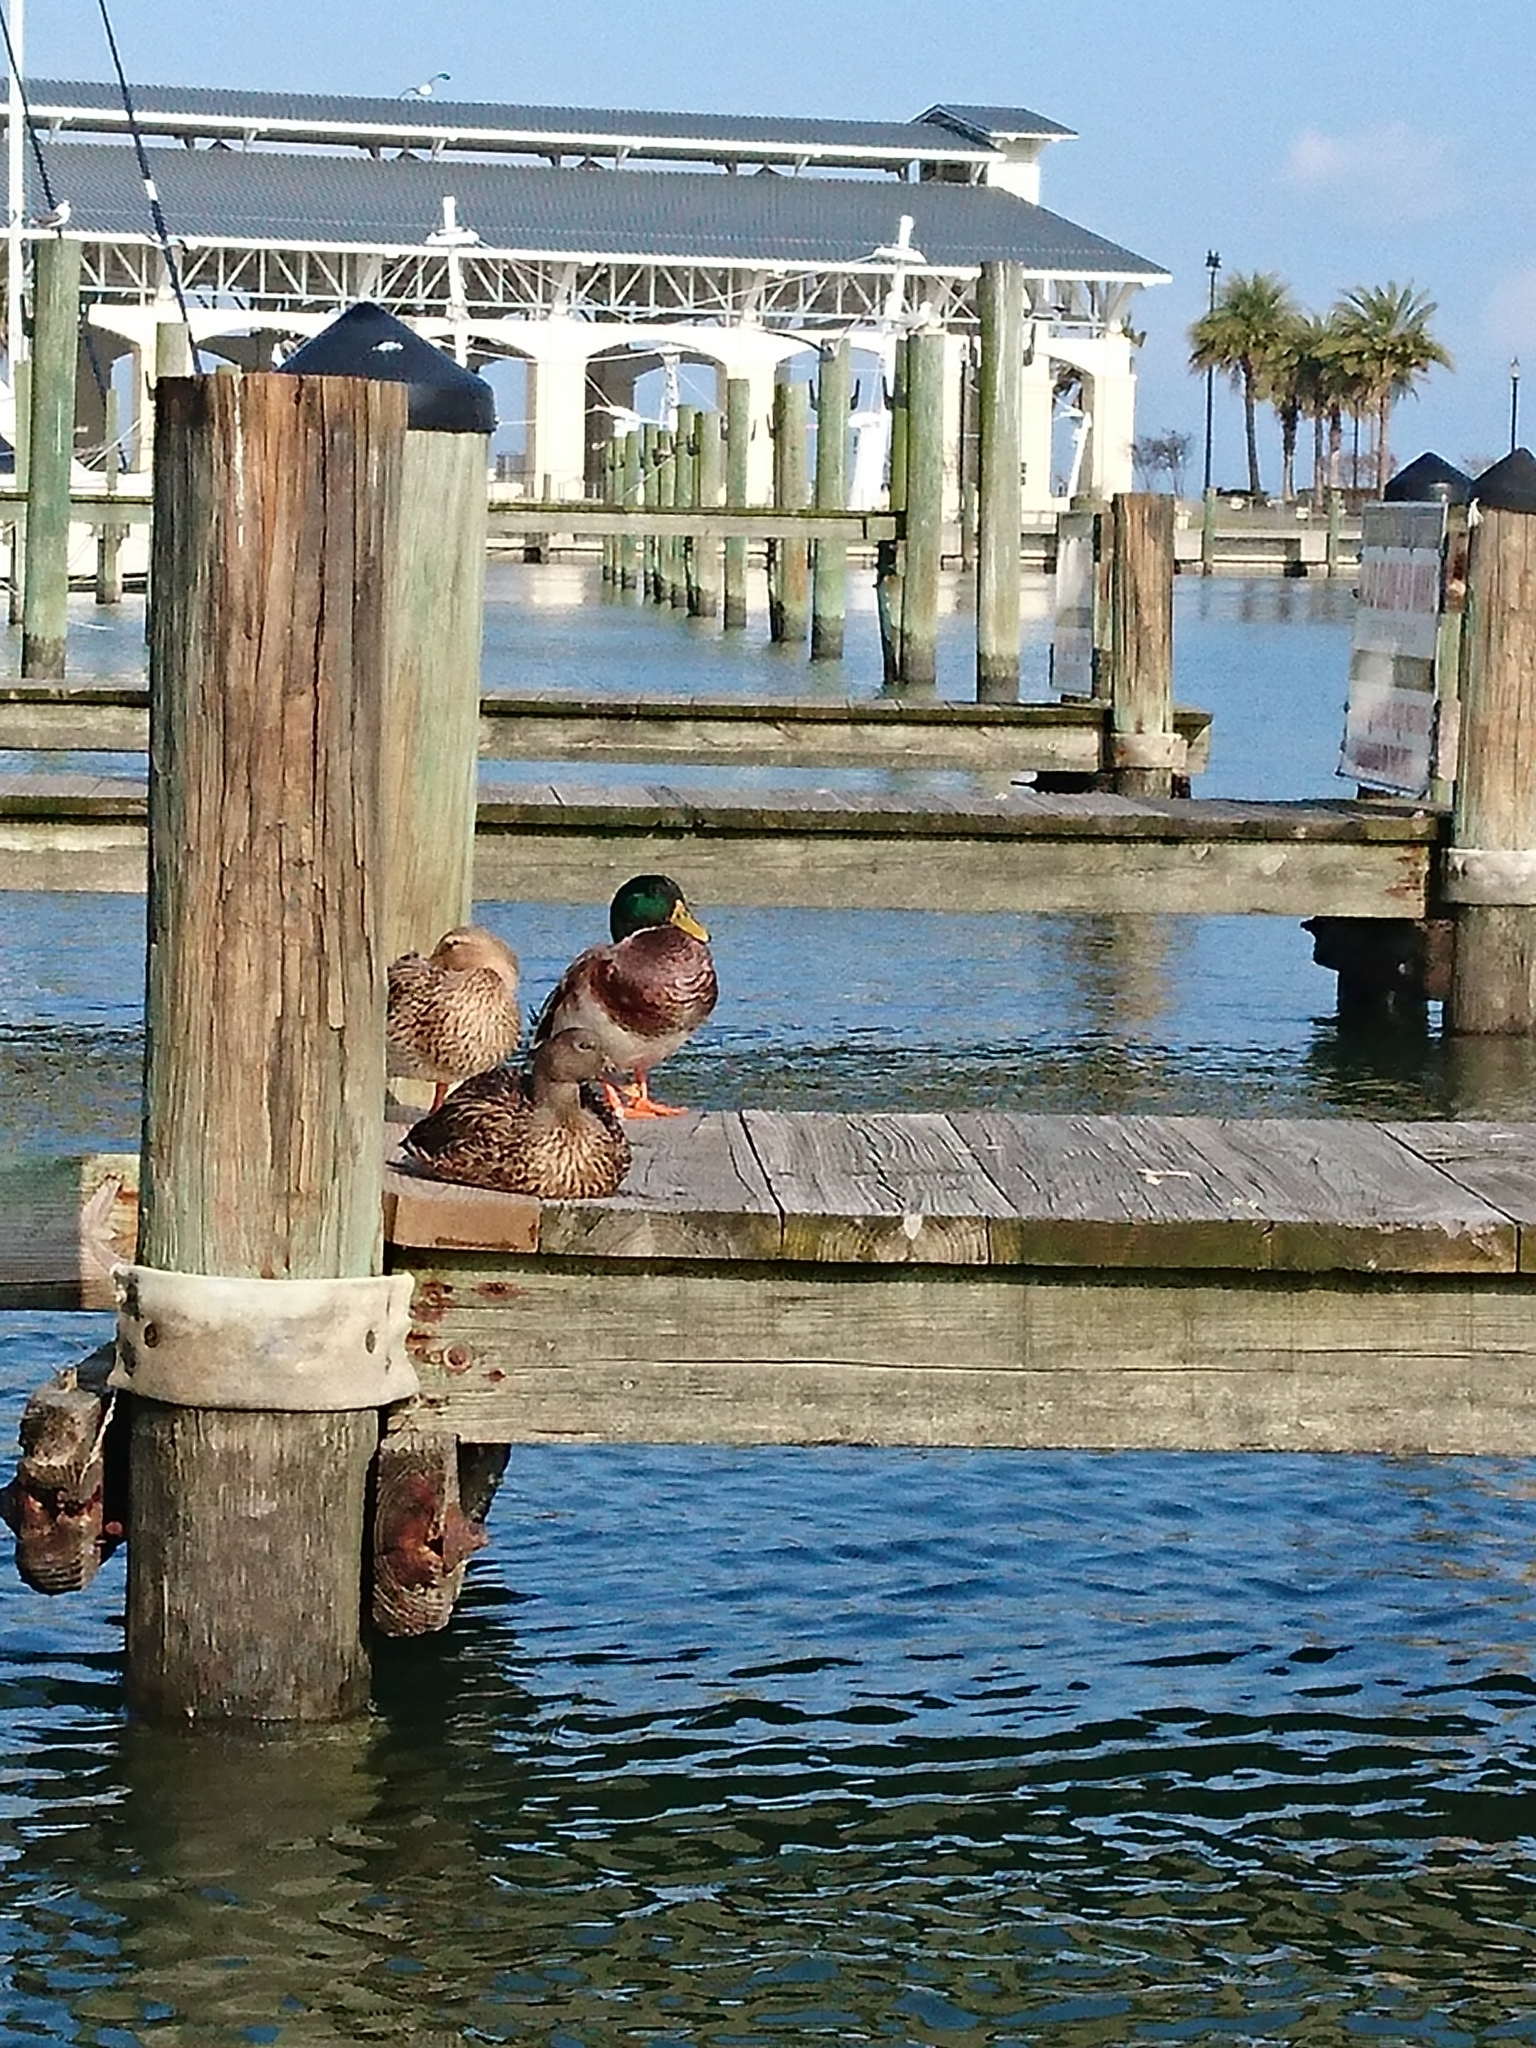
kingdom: Animalia
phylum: Chordata
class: Aves
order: Anseriformes
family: Anatidae
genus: Anas
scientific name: Anas platyrhynchos
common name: Mallard
